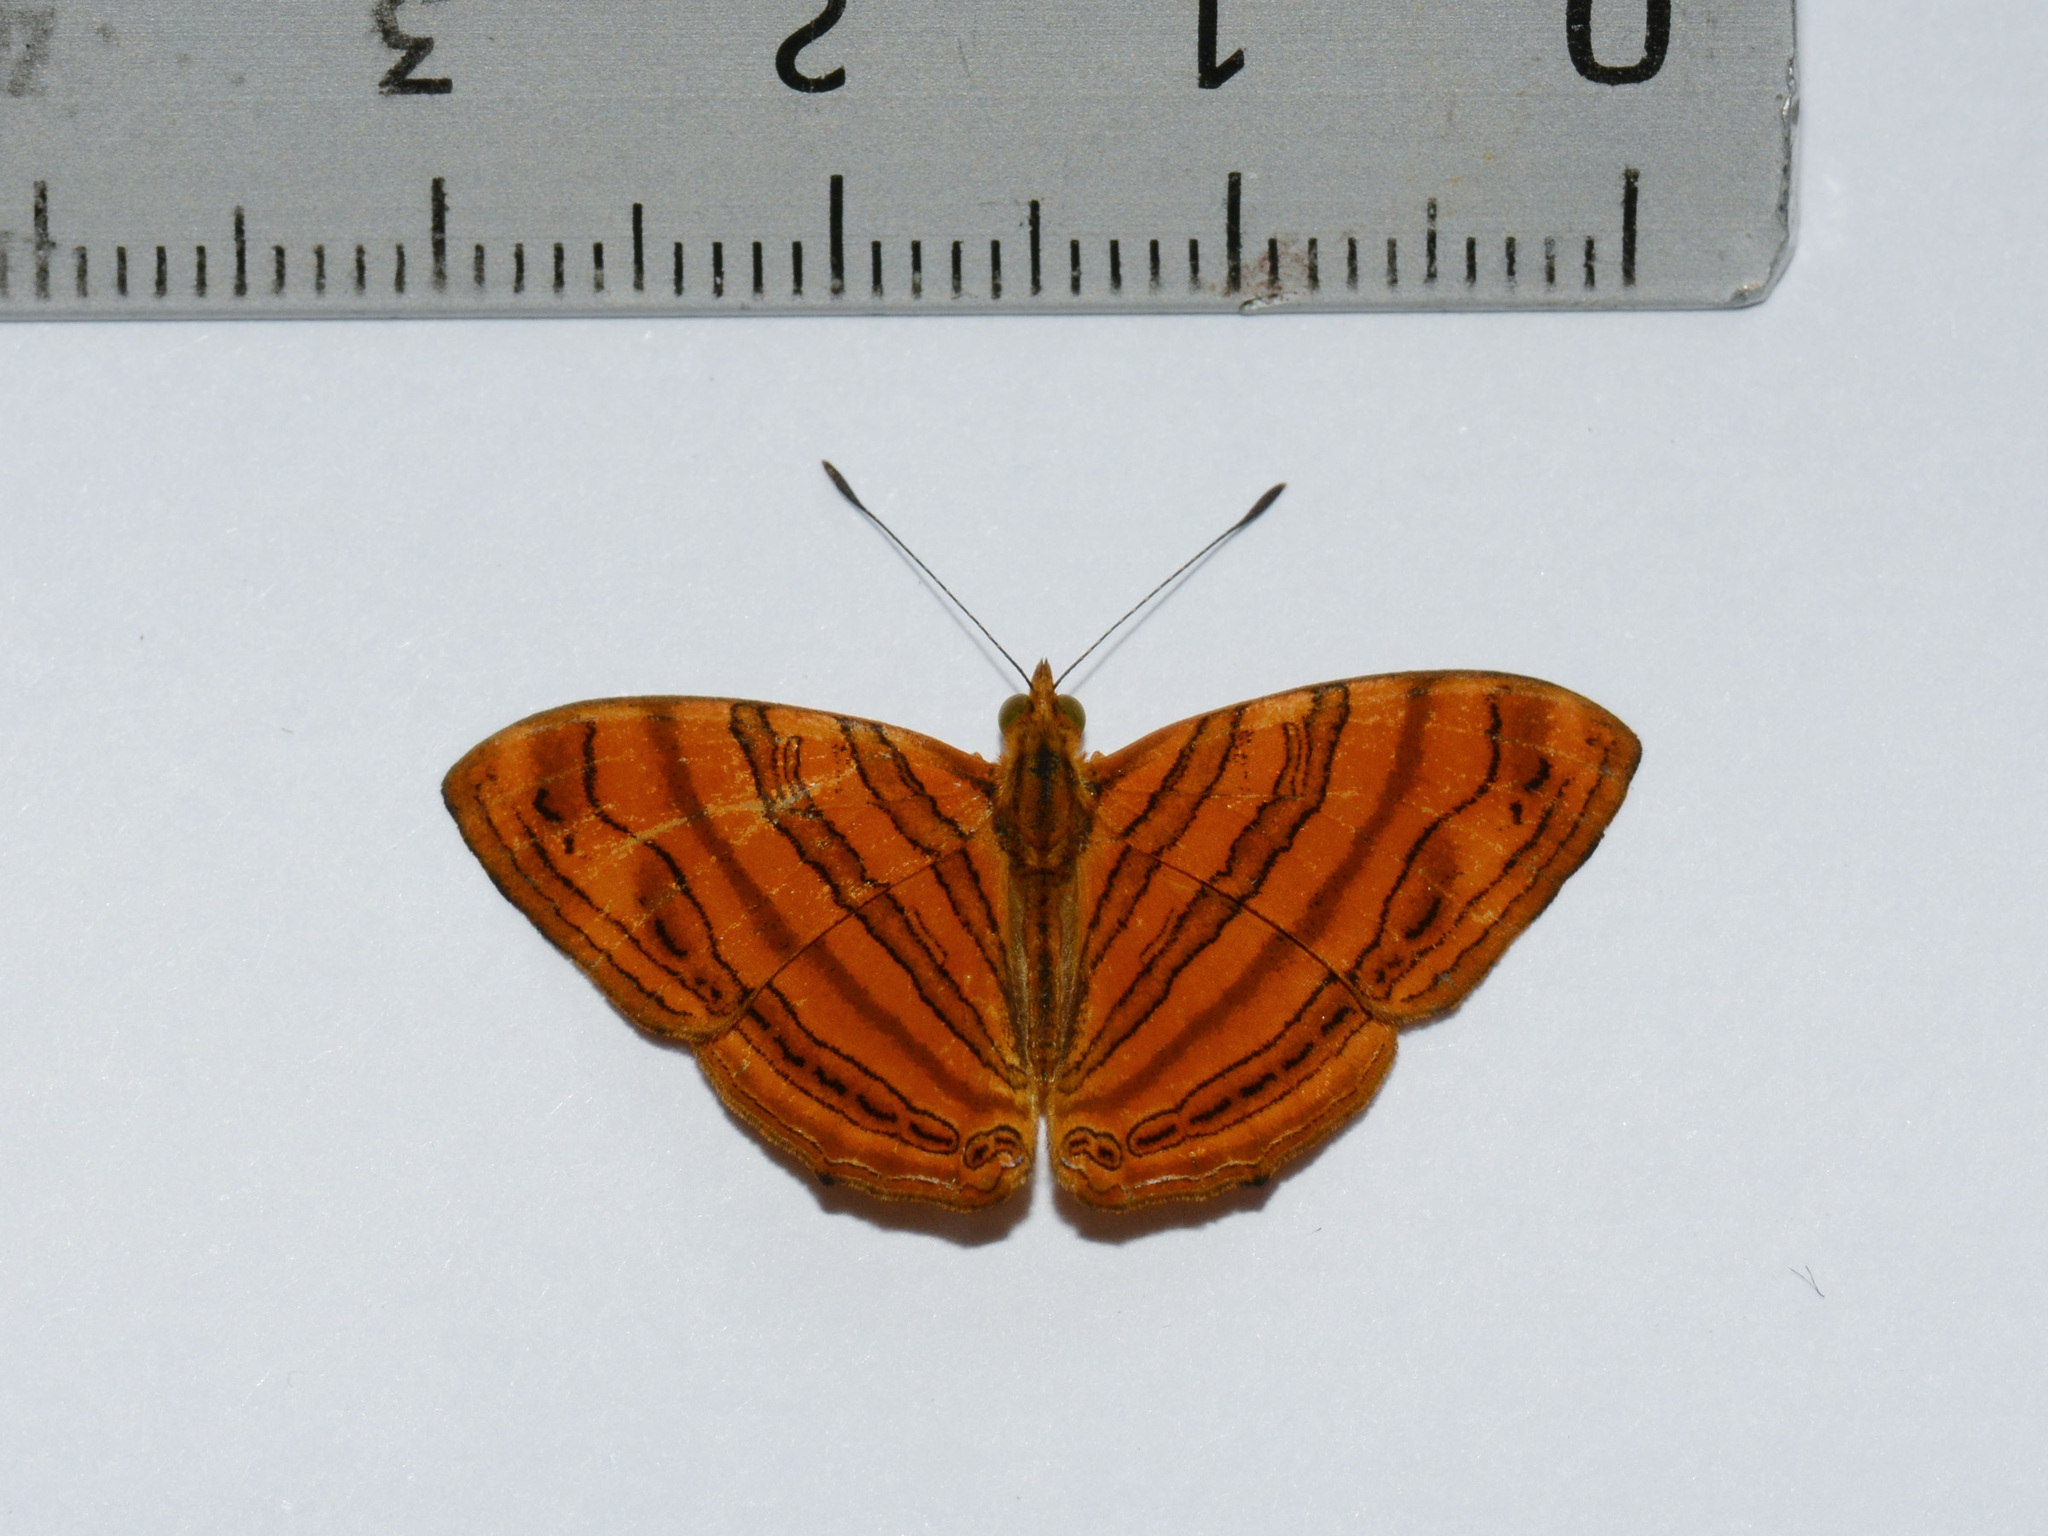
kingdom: Animalia
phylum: Arthropoda
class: Insecta
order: Lepidoptera
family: Nymphalidae
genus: Chersonesia
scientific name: Chersonesia intermedia
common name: Intermediate maplet
